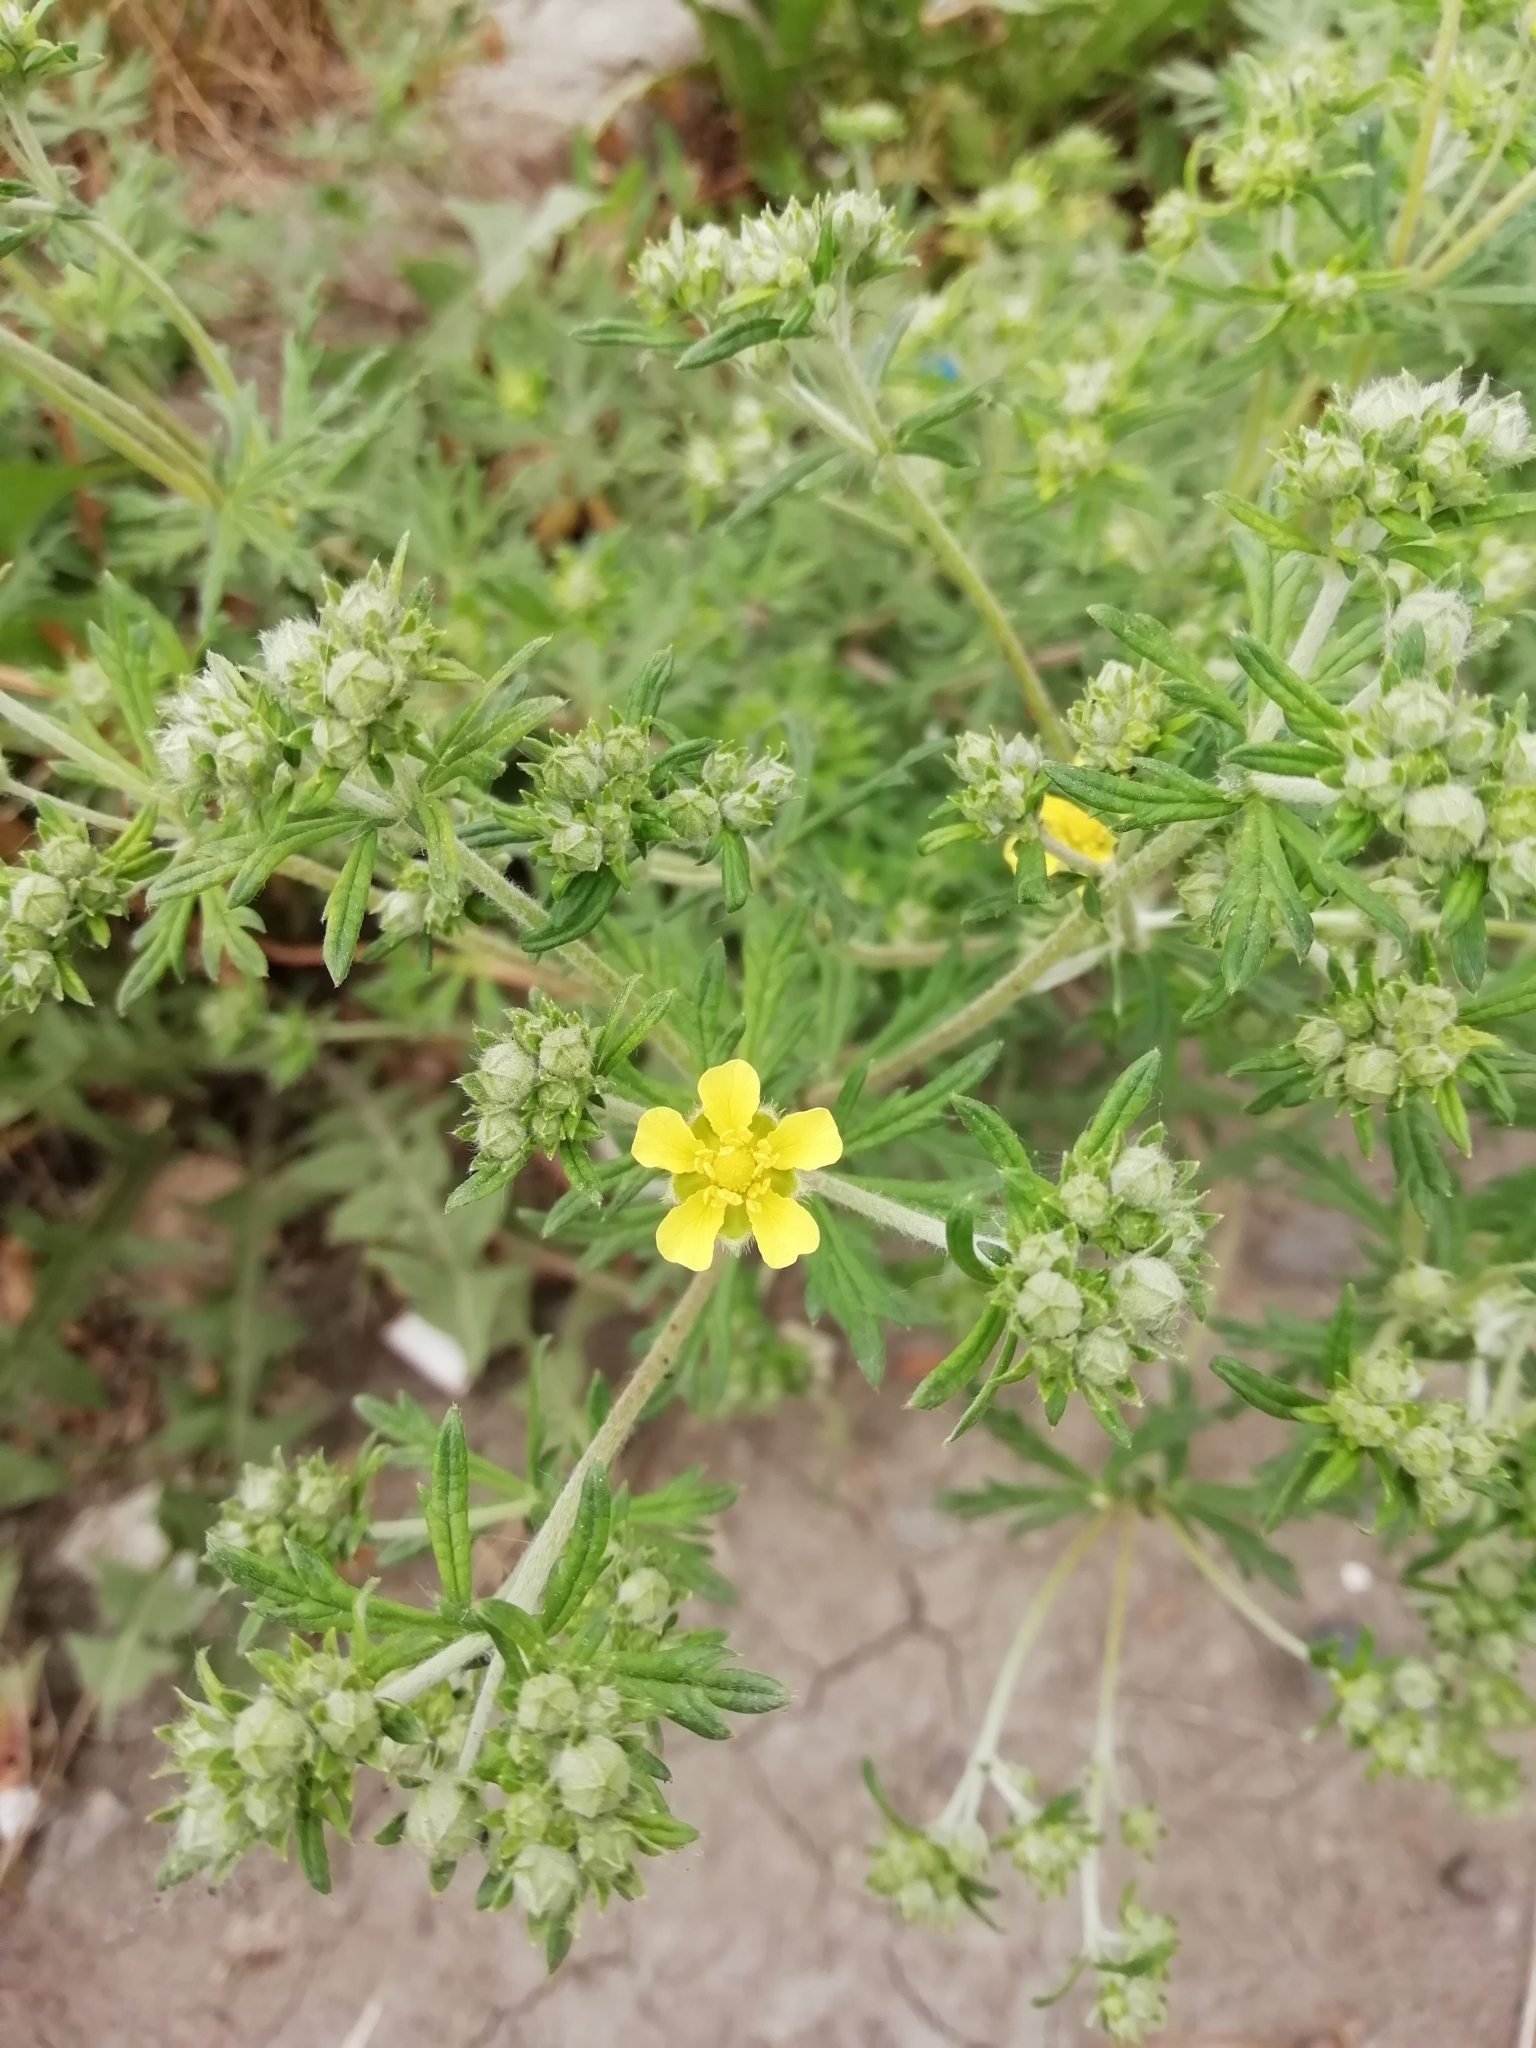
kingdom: Plantae
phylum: Tracheophyta
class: Magnoliopsida
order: Rosales
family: Rosaceae
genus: Potentilla
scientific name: Potentilla argentea
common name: Hoary cinquefoil
